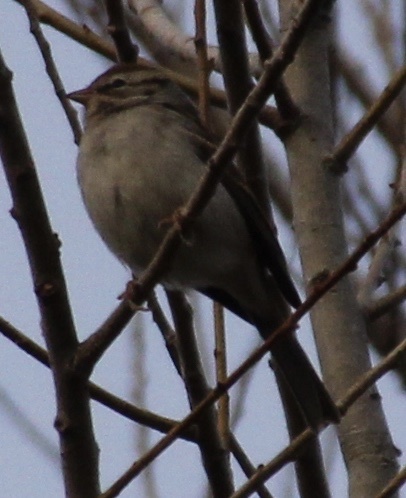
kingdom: Animalia
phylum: Chordata
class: Aves
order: Passeriformes
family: Passerellidae
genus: Spizella
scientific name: Spizella passerina
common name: Chipping sparrow
